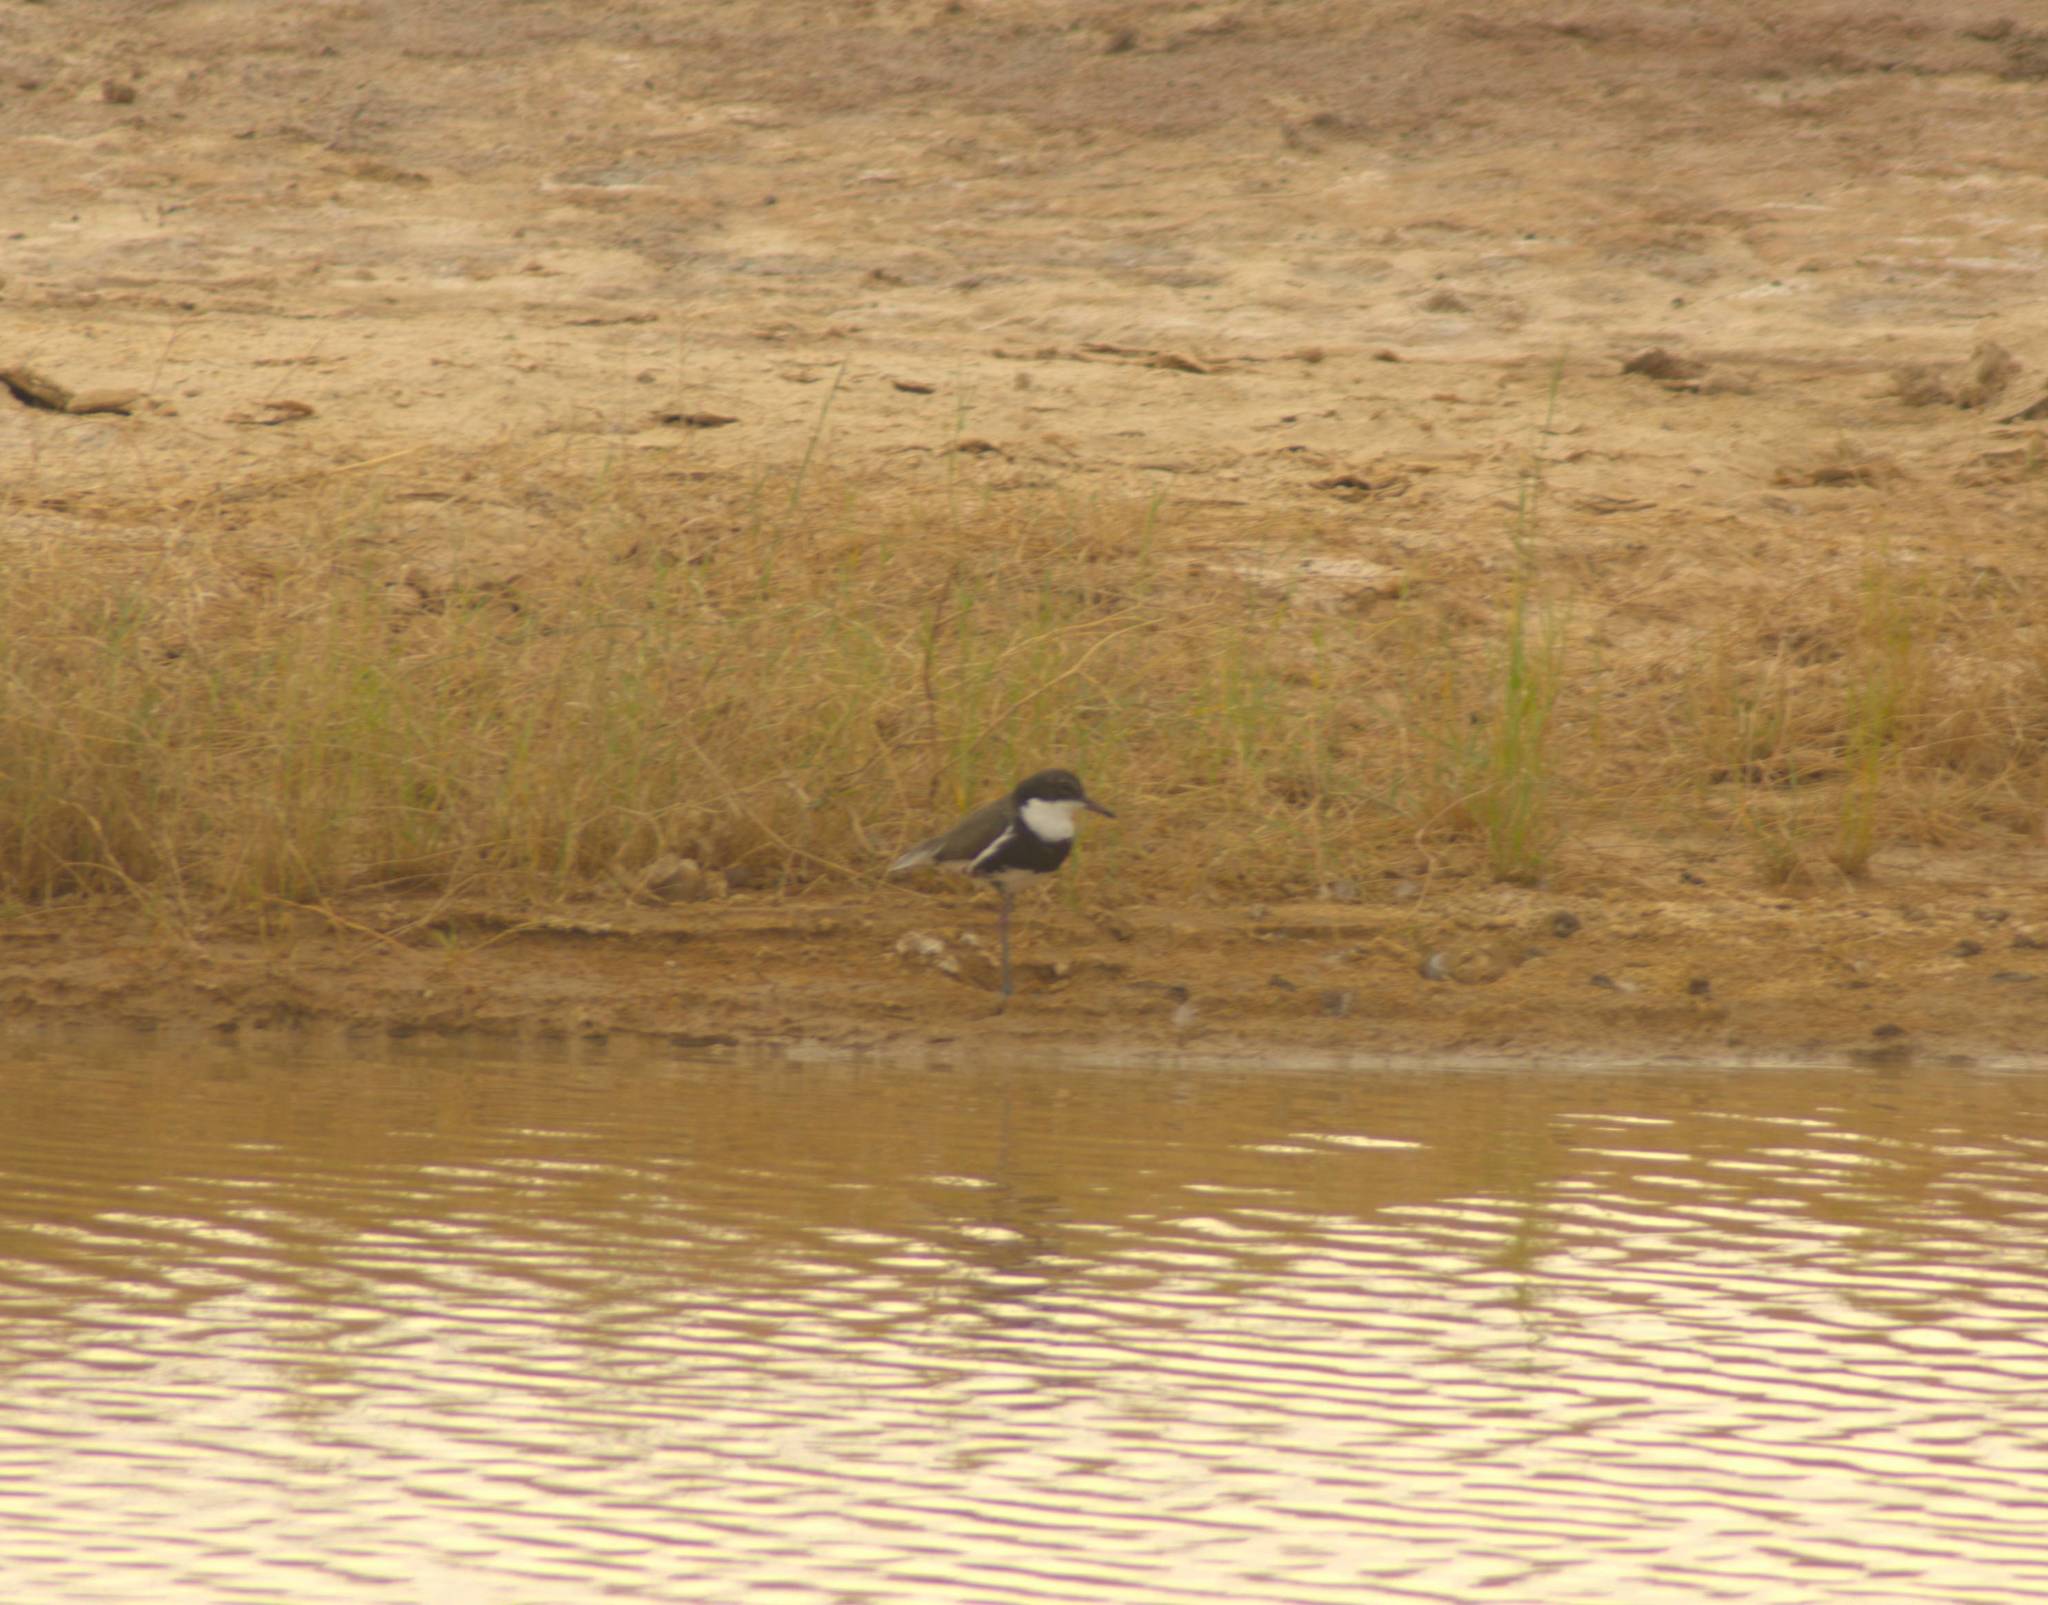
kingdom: Animalia
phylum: Chordata
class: Aves
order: Charadriiformes
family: Charadriidae
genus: Erythrogonys
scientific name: Erythrogonys cinctus
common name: Red-kneed dotterel
